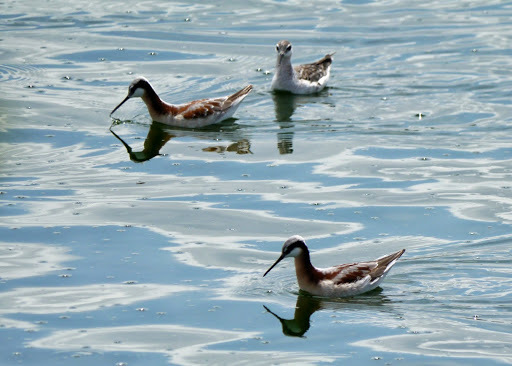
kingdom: Animalia
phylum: Chordata
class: Aves
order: Charadriiformes
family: Scolopacidae
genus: Phalaropus
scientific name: Phalaropus tricolor
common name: Wilson's phalarope
